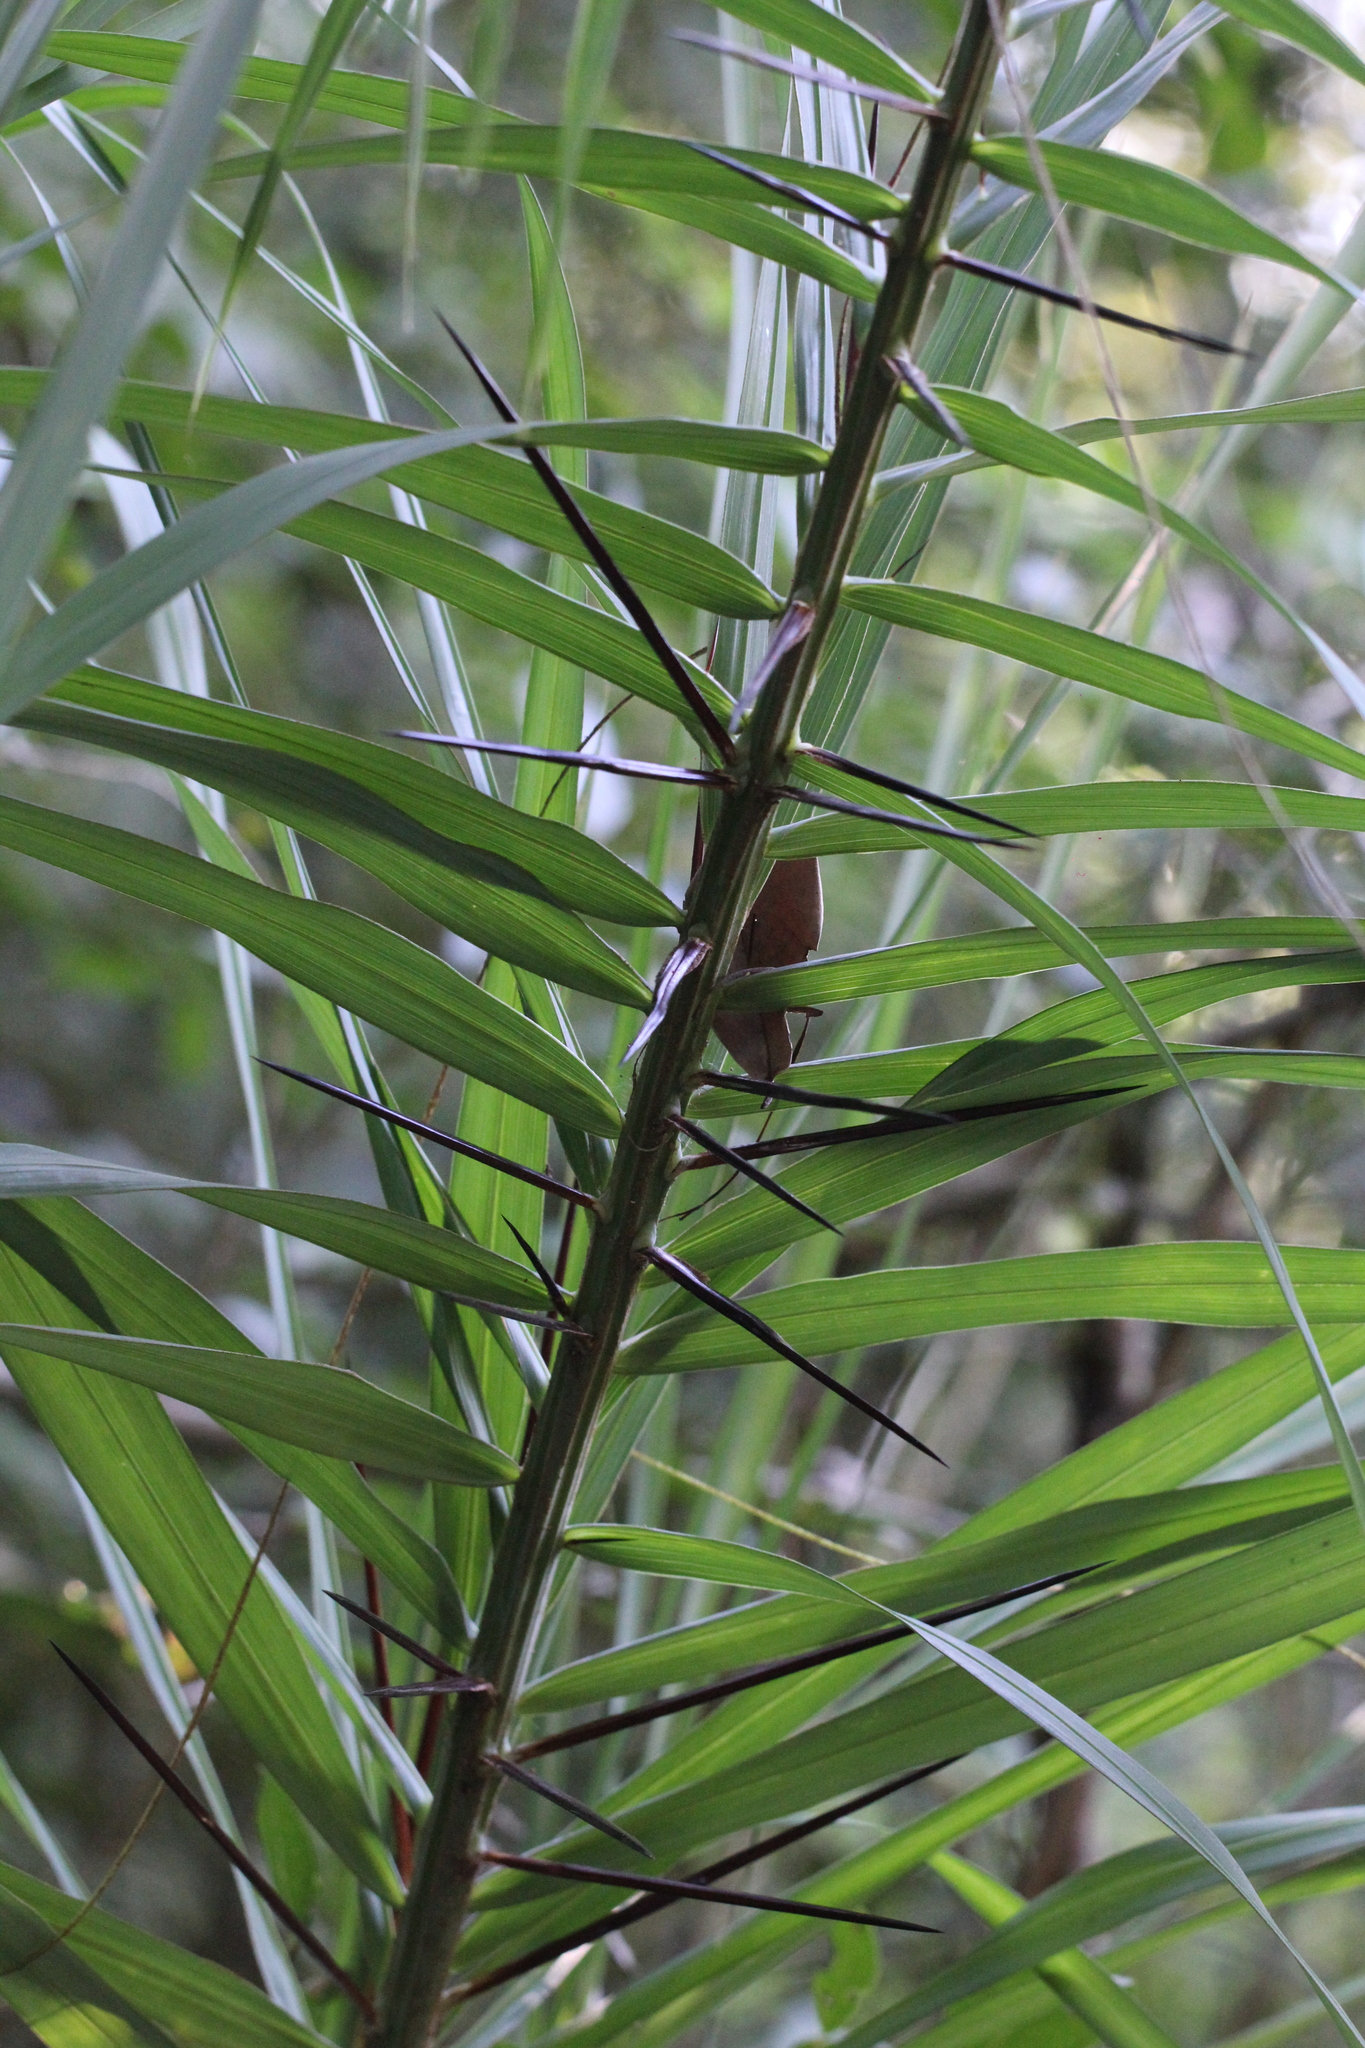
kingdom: Plantae
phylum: Tracheophyta
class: Liliopsida
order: Arecales
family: Arecaceae
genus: Acrocomia
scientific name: Acrocomia aculeata
